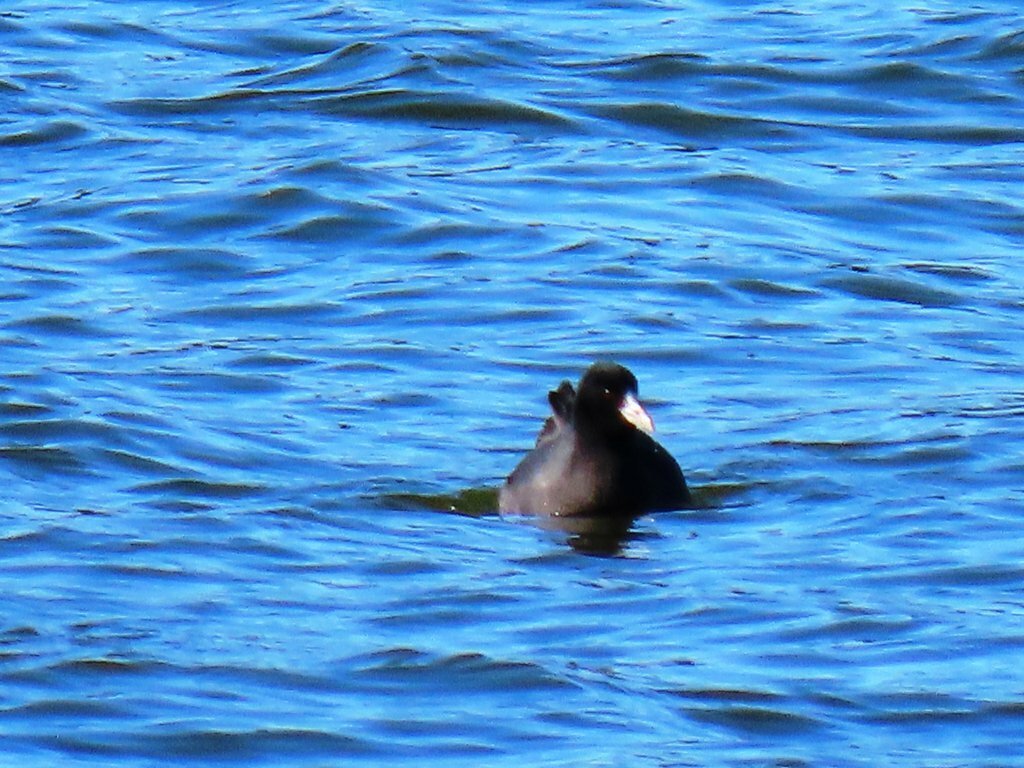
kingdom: Animalia
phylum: Chordata
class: Aves
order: Gruiformes
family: Rallidae
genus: Fulica
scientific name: Fulica atra
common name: Eurasian coot
